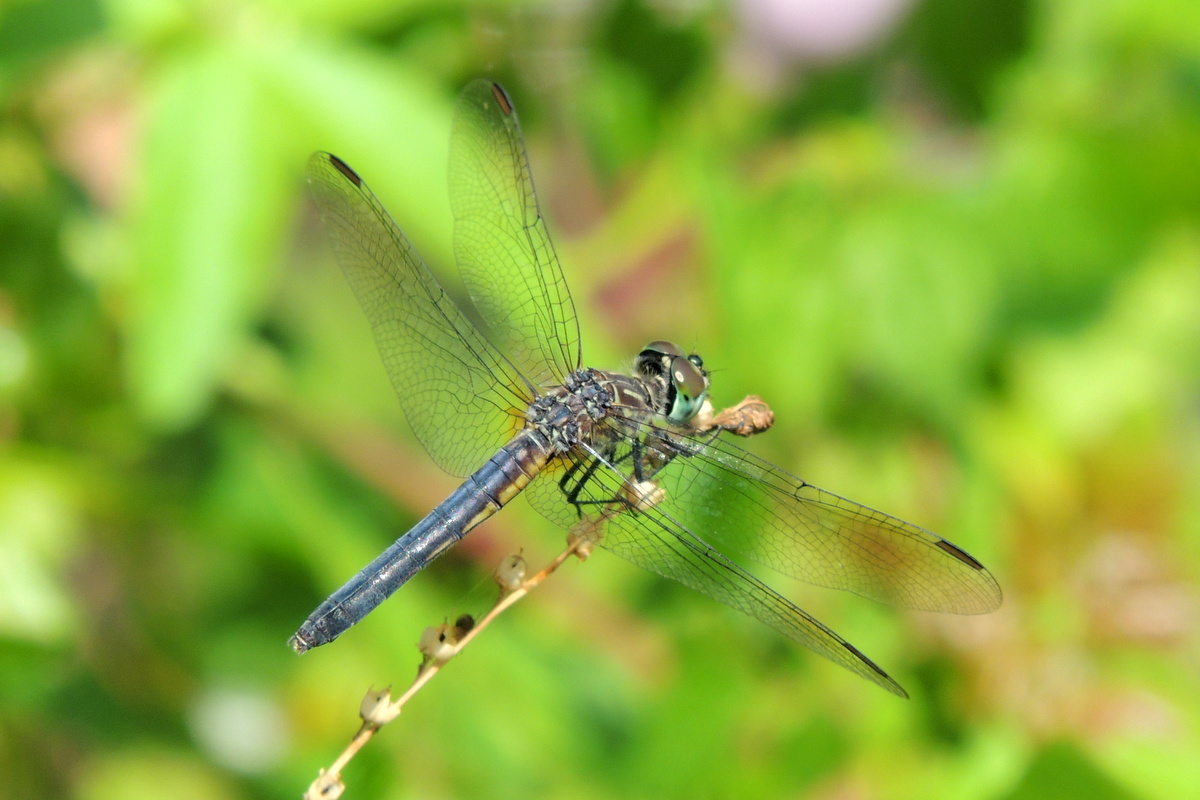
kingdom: Animalia
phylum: Arthropoda
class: Insecta
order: Odonata
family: Libellulidae
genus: Pachydiplax
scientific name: Pachydiplax longipennis
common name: Blue dasher
